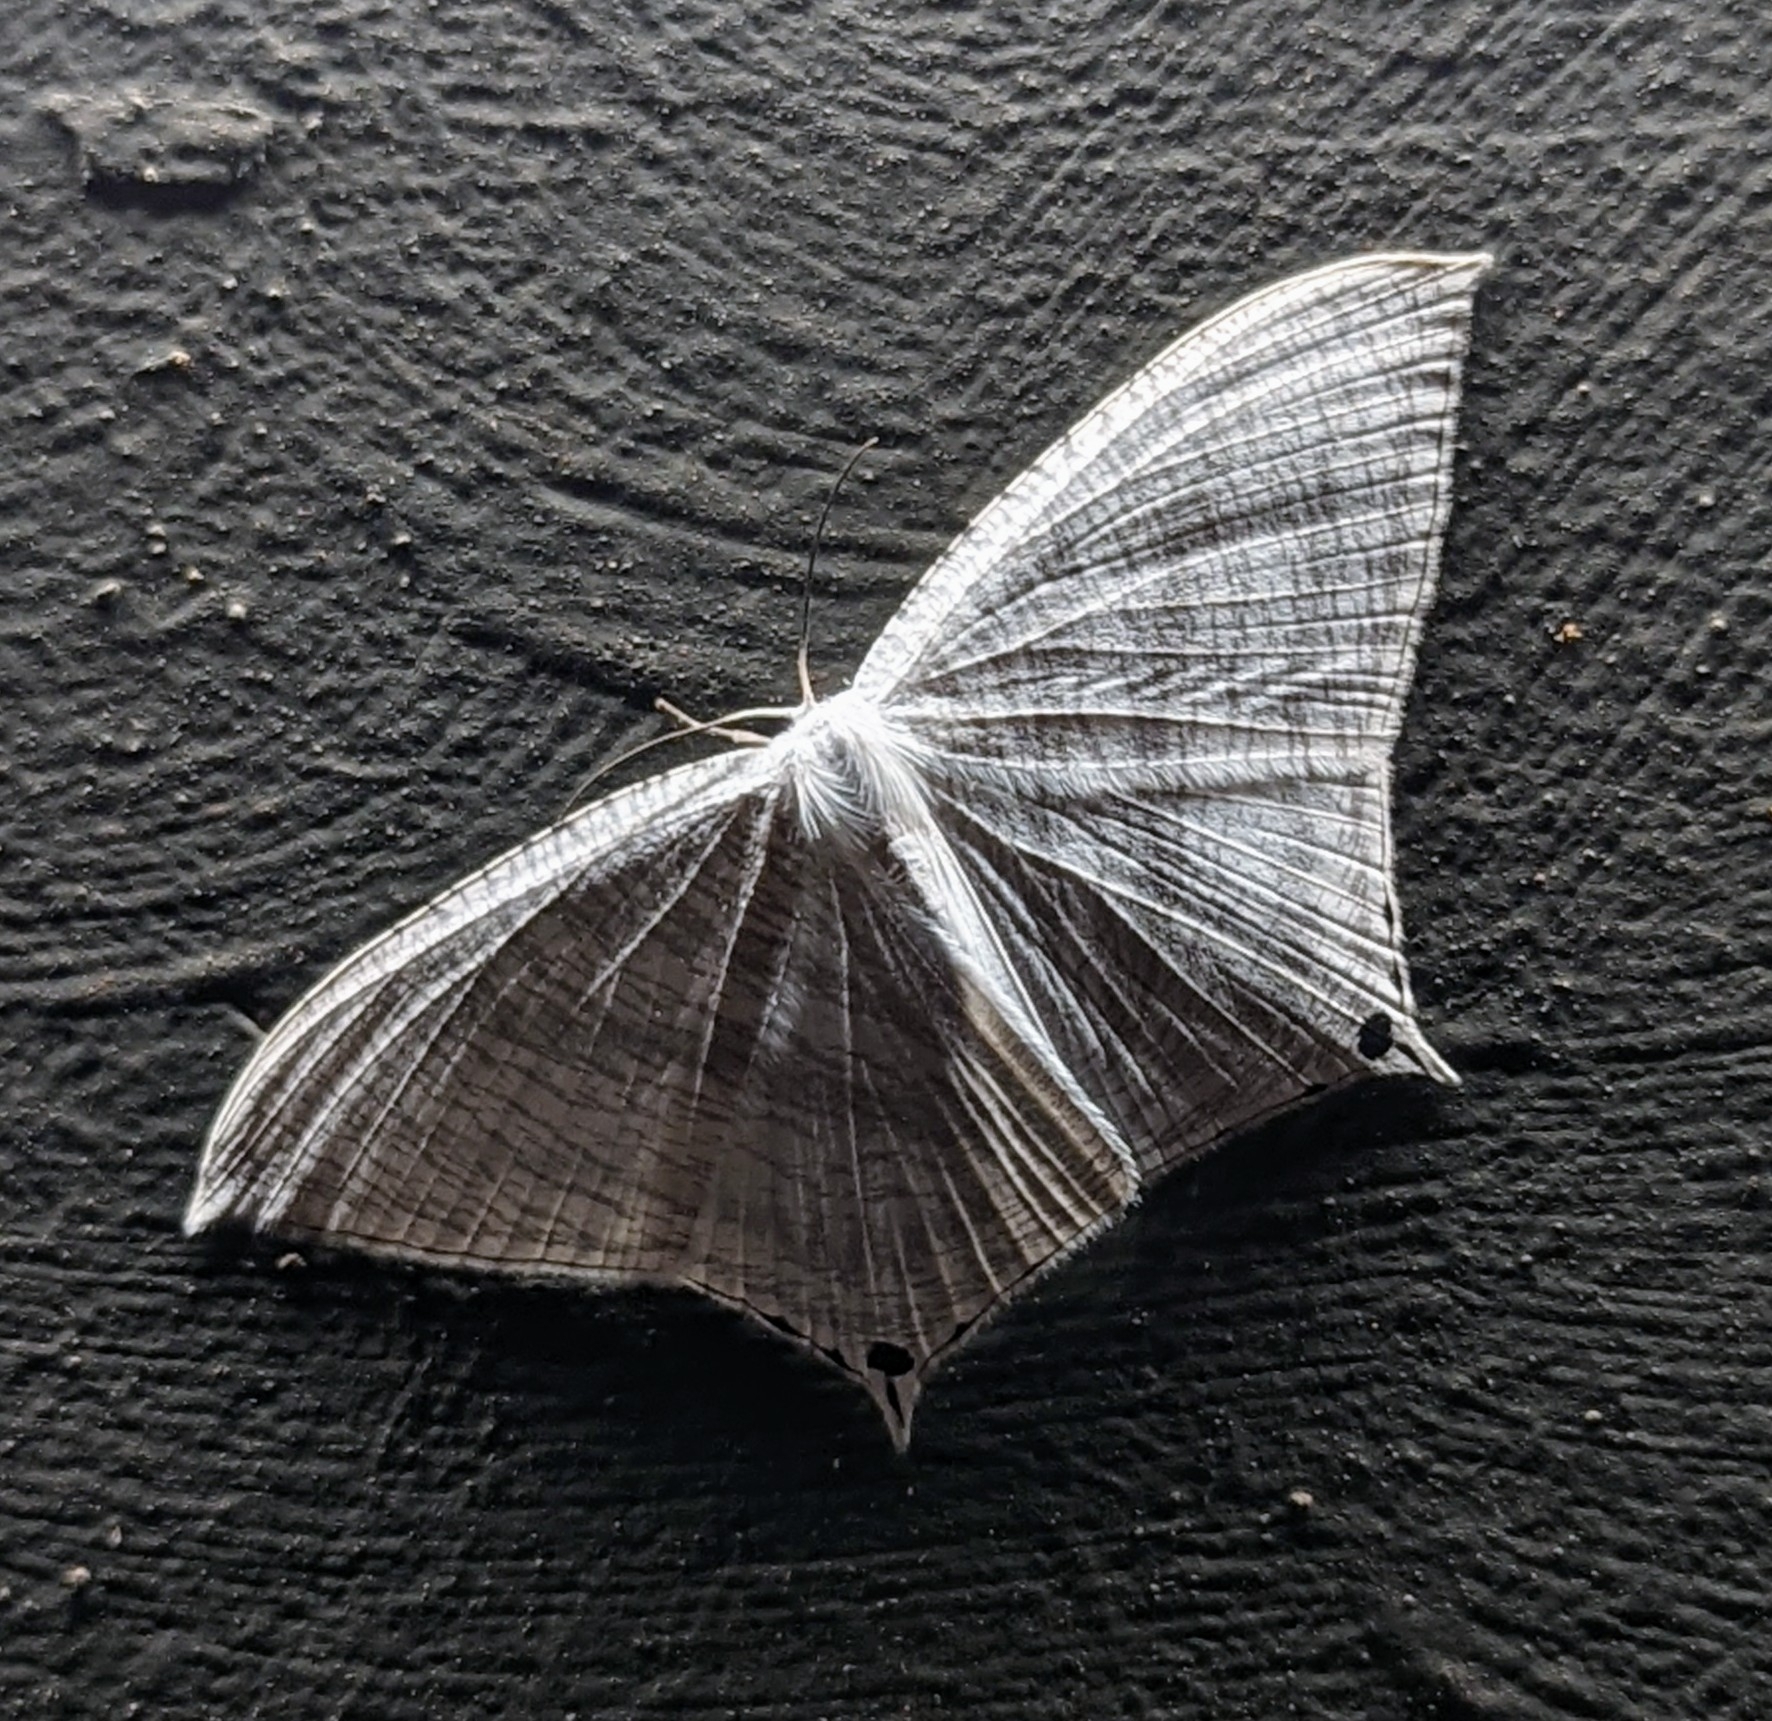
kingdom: Animalia
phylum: Arthropoda
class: Insecta
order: Lepidoptera
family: Uraniidae
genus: Micronia
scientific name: Micronia aculeata
